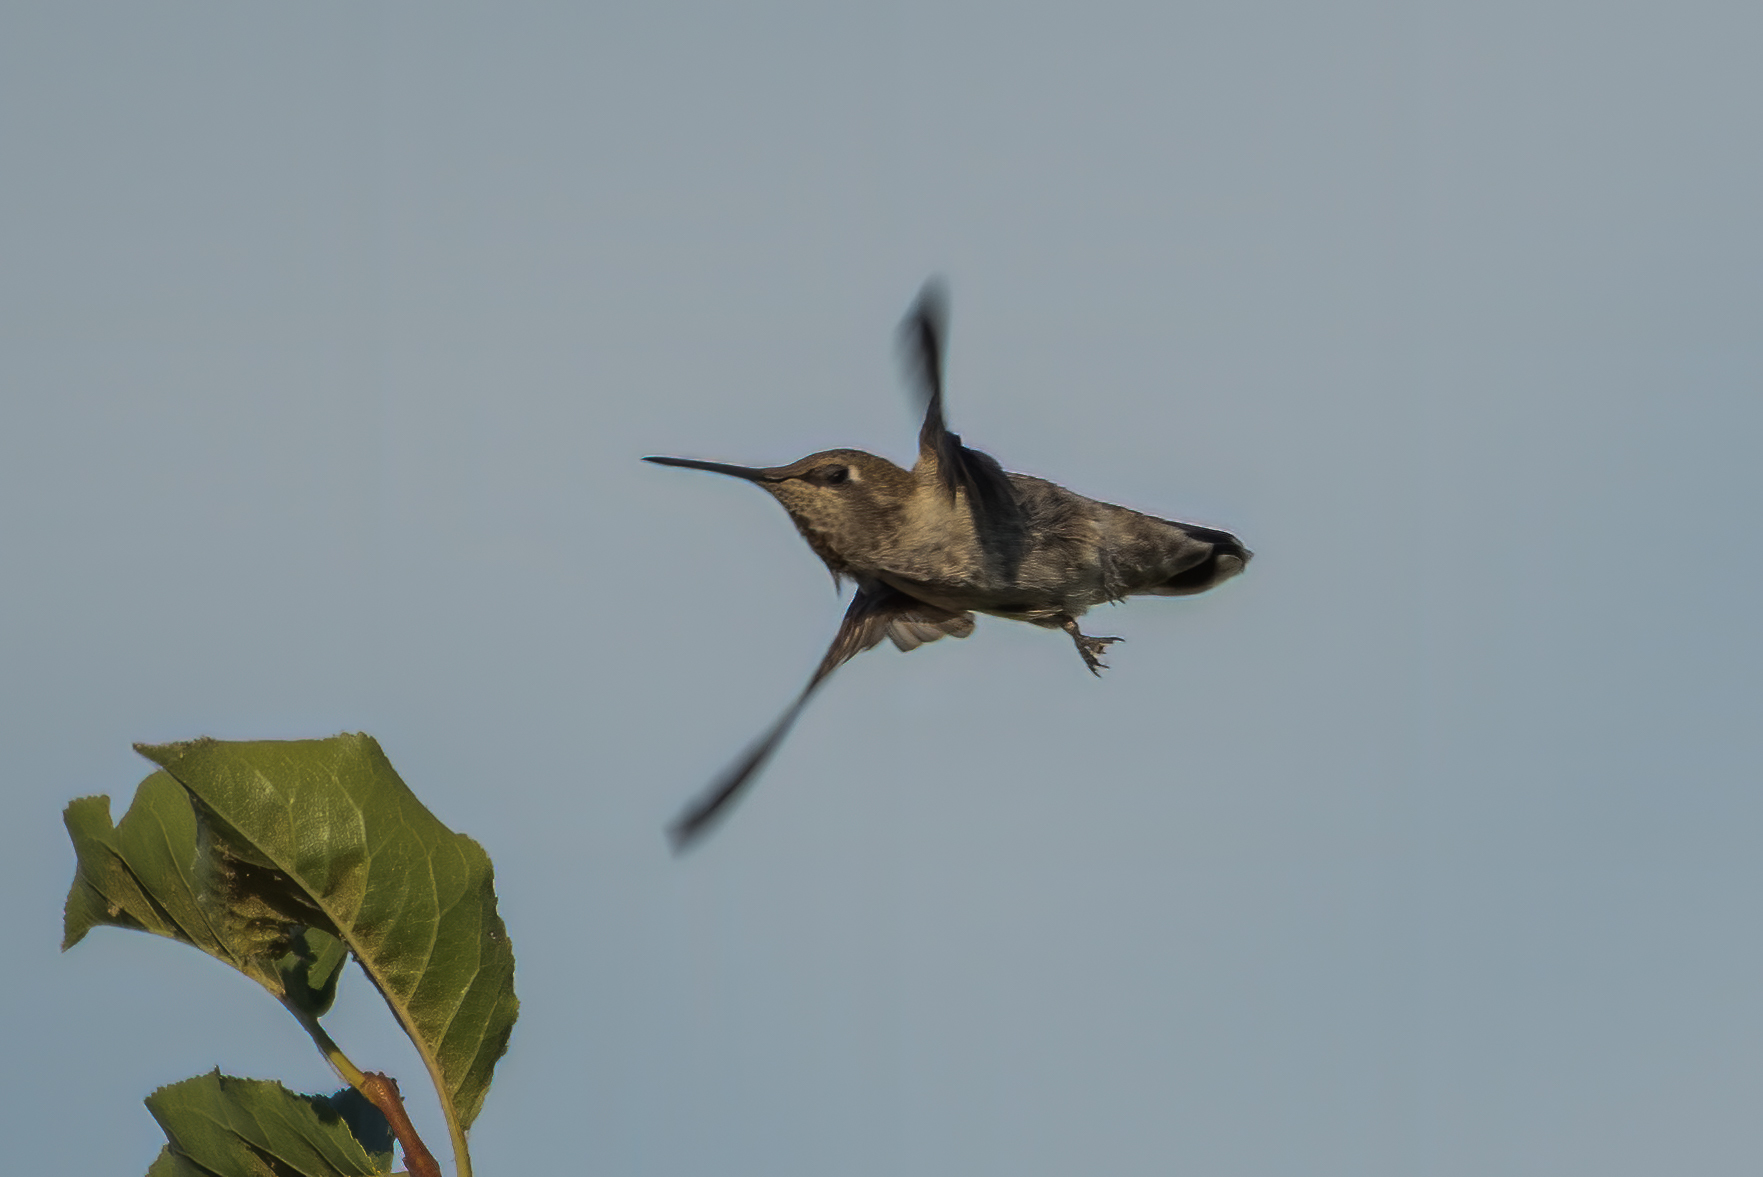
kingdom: Animalia
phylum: Chordata
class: Aves
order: Apodiformes
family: Trochilidae
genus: Calypte
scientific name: Calypte anna
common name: Anna's hummingbird
